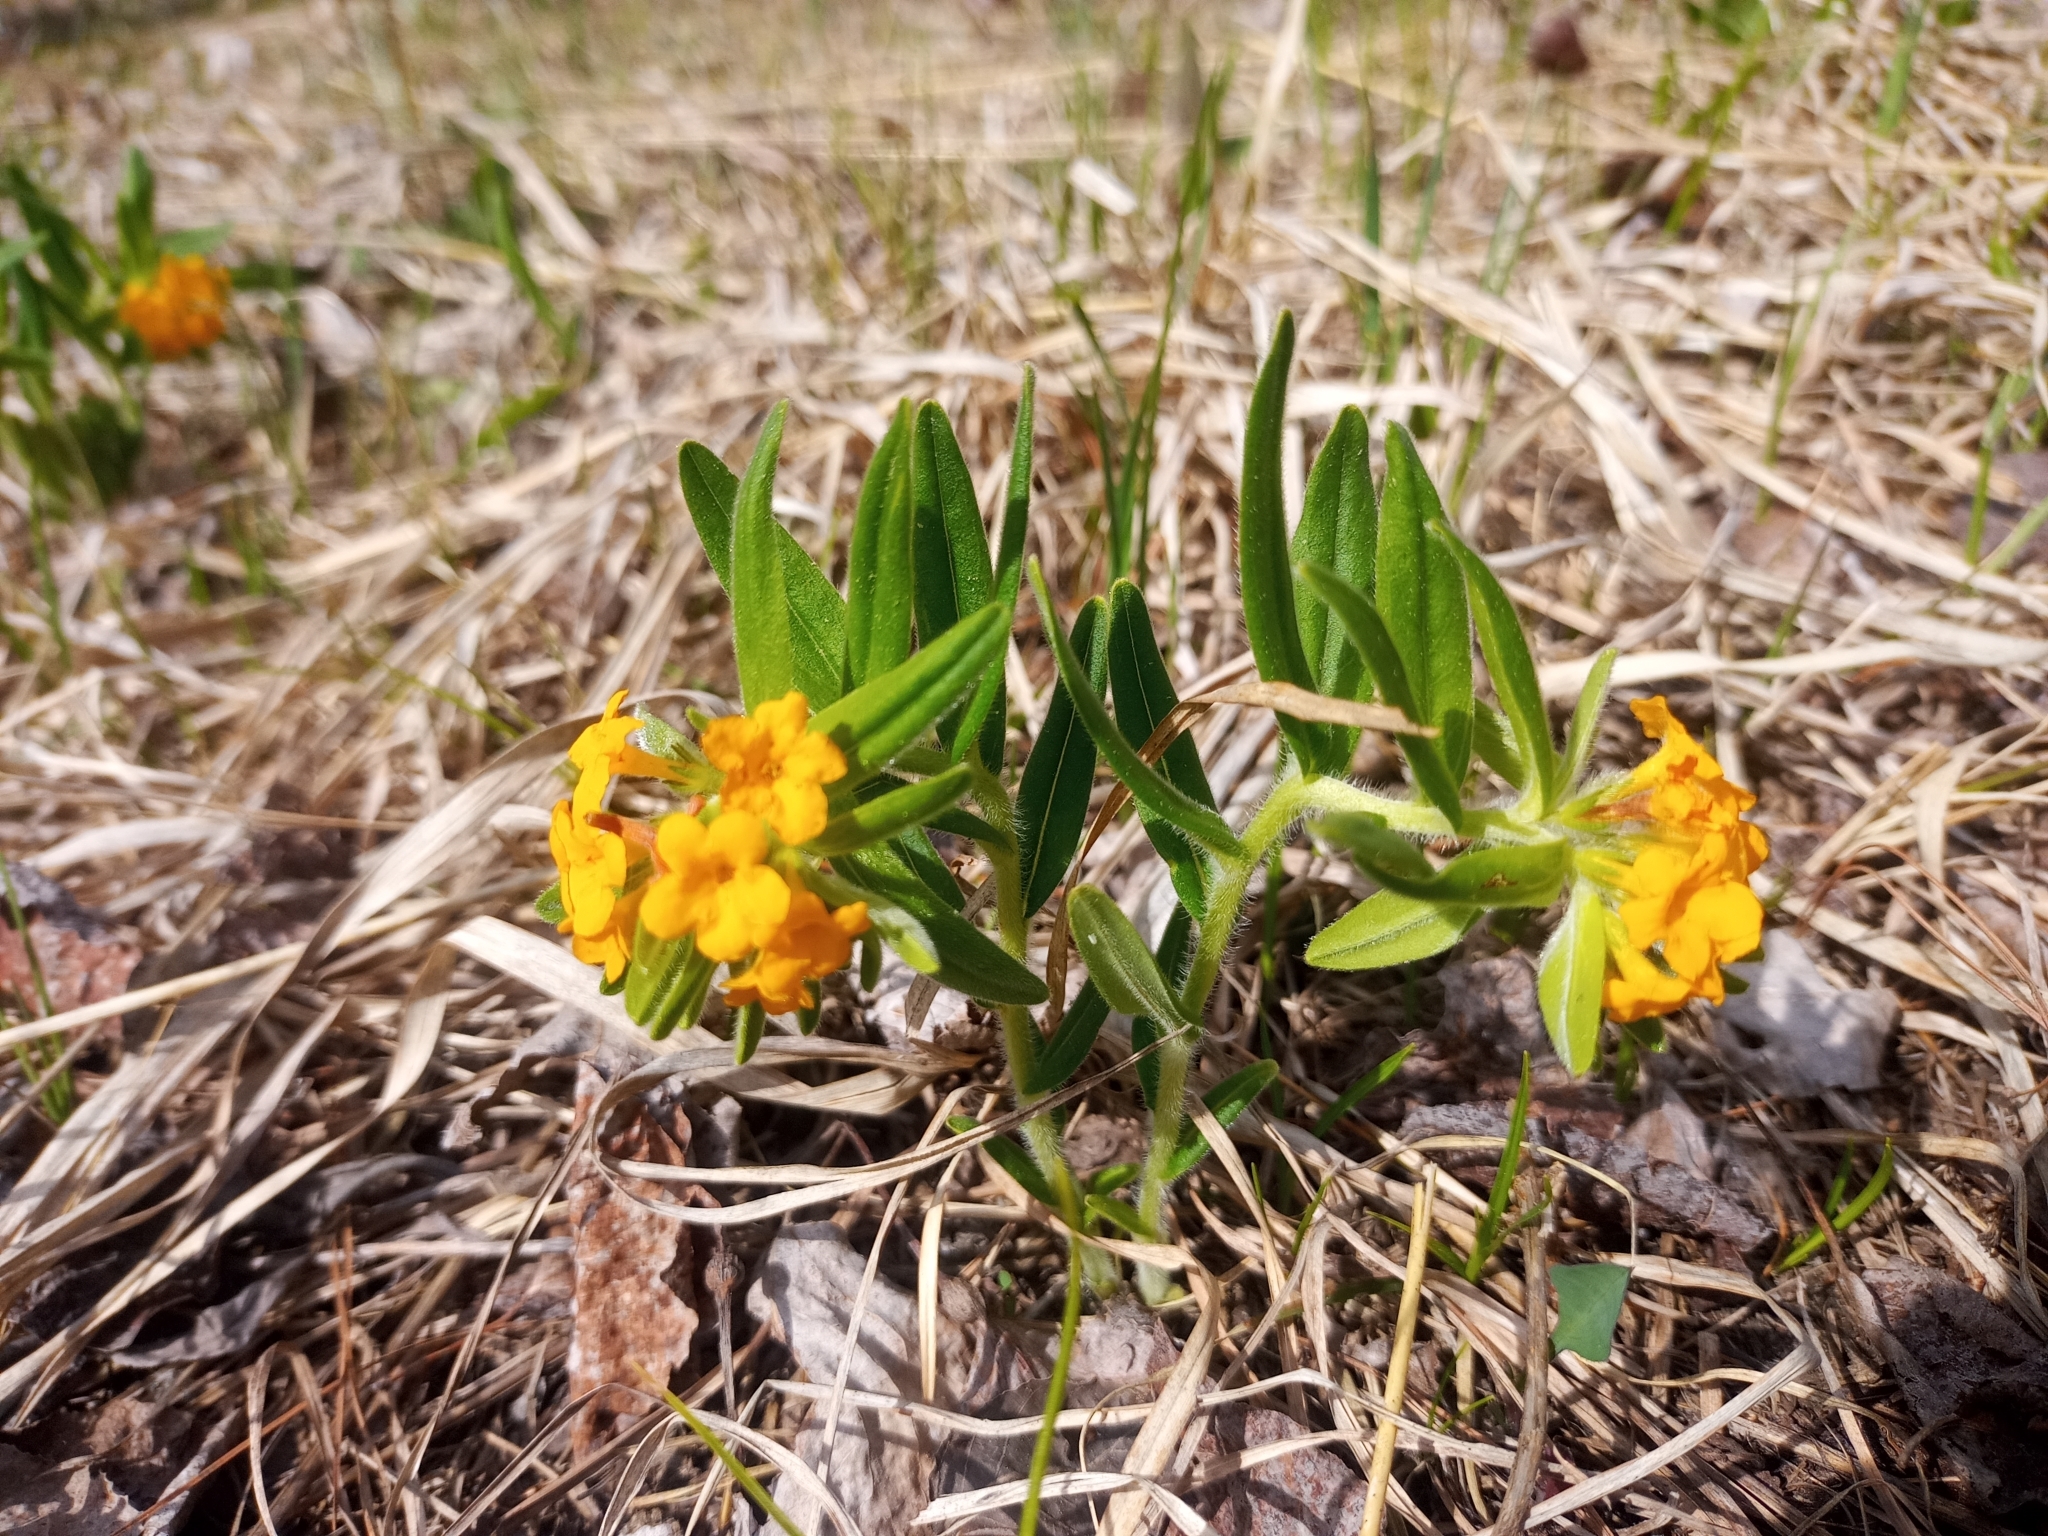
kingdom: Plantae
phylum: Tracheophyta
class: Magnoliopsida
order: Boraginales
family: Boraginaceae
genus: Lithospermum
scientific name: Lithospermum canescens
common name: Hoary puccoon
